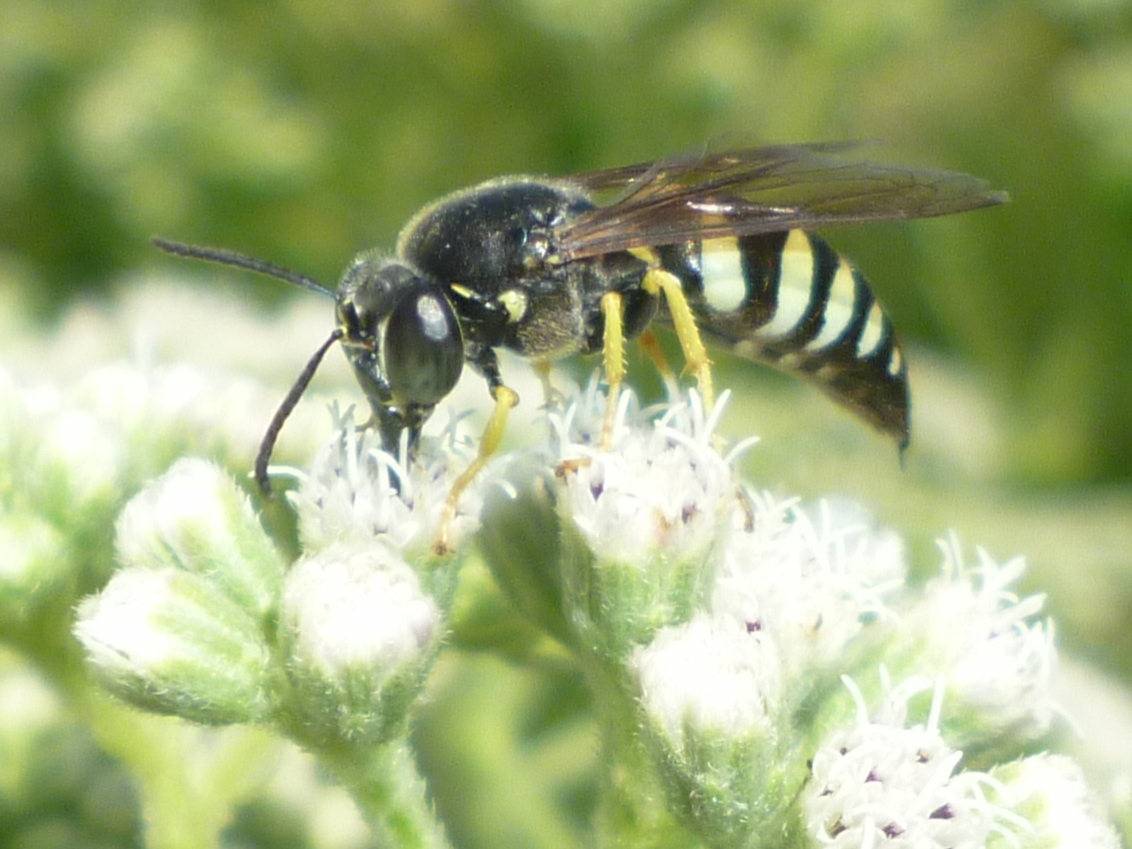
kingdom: Animalia
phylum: Arthropoda
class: Insecta
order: Hymenoptera
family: Crabronidae
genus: Bicyrtes
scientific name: Bicyrtes quadrifasciatus
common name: Four-banded stink bug hunter wasp
